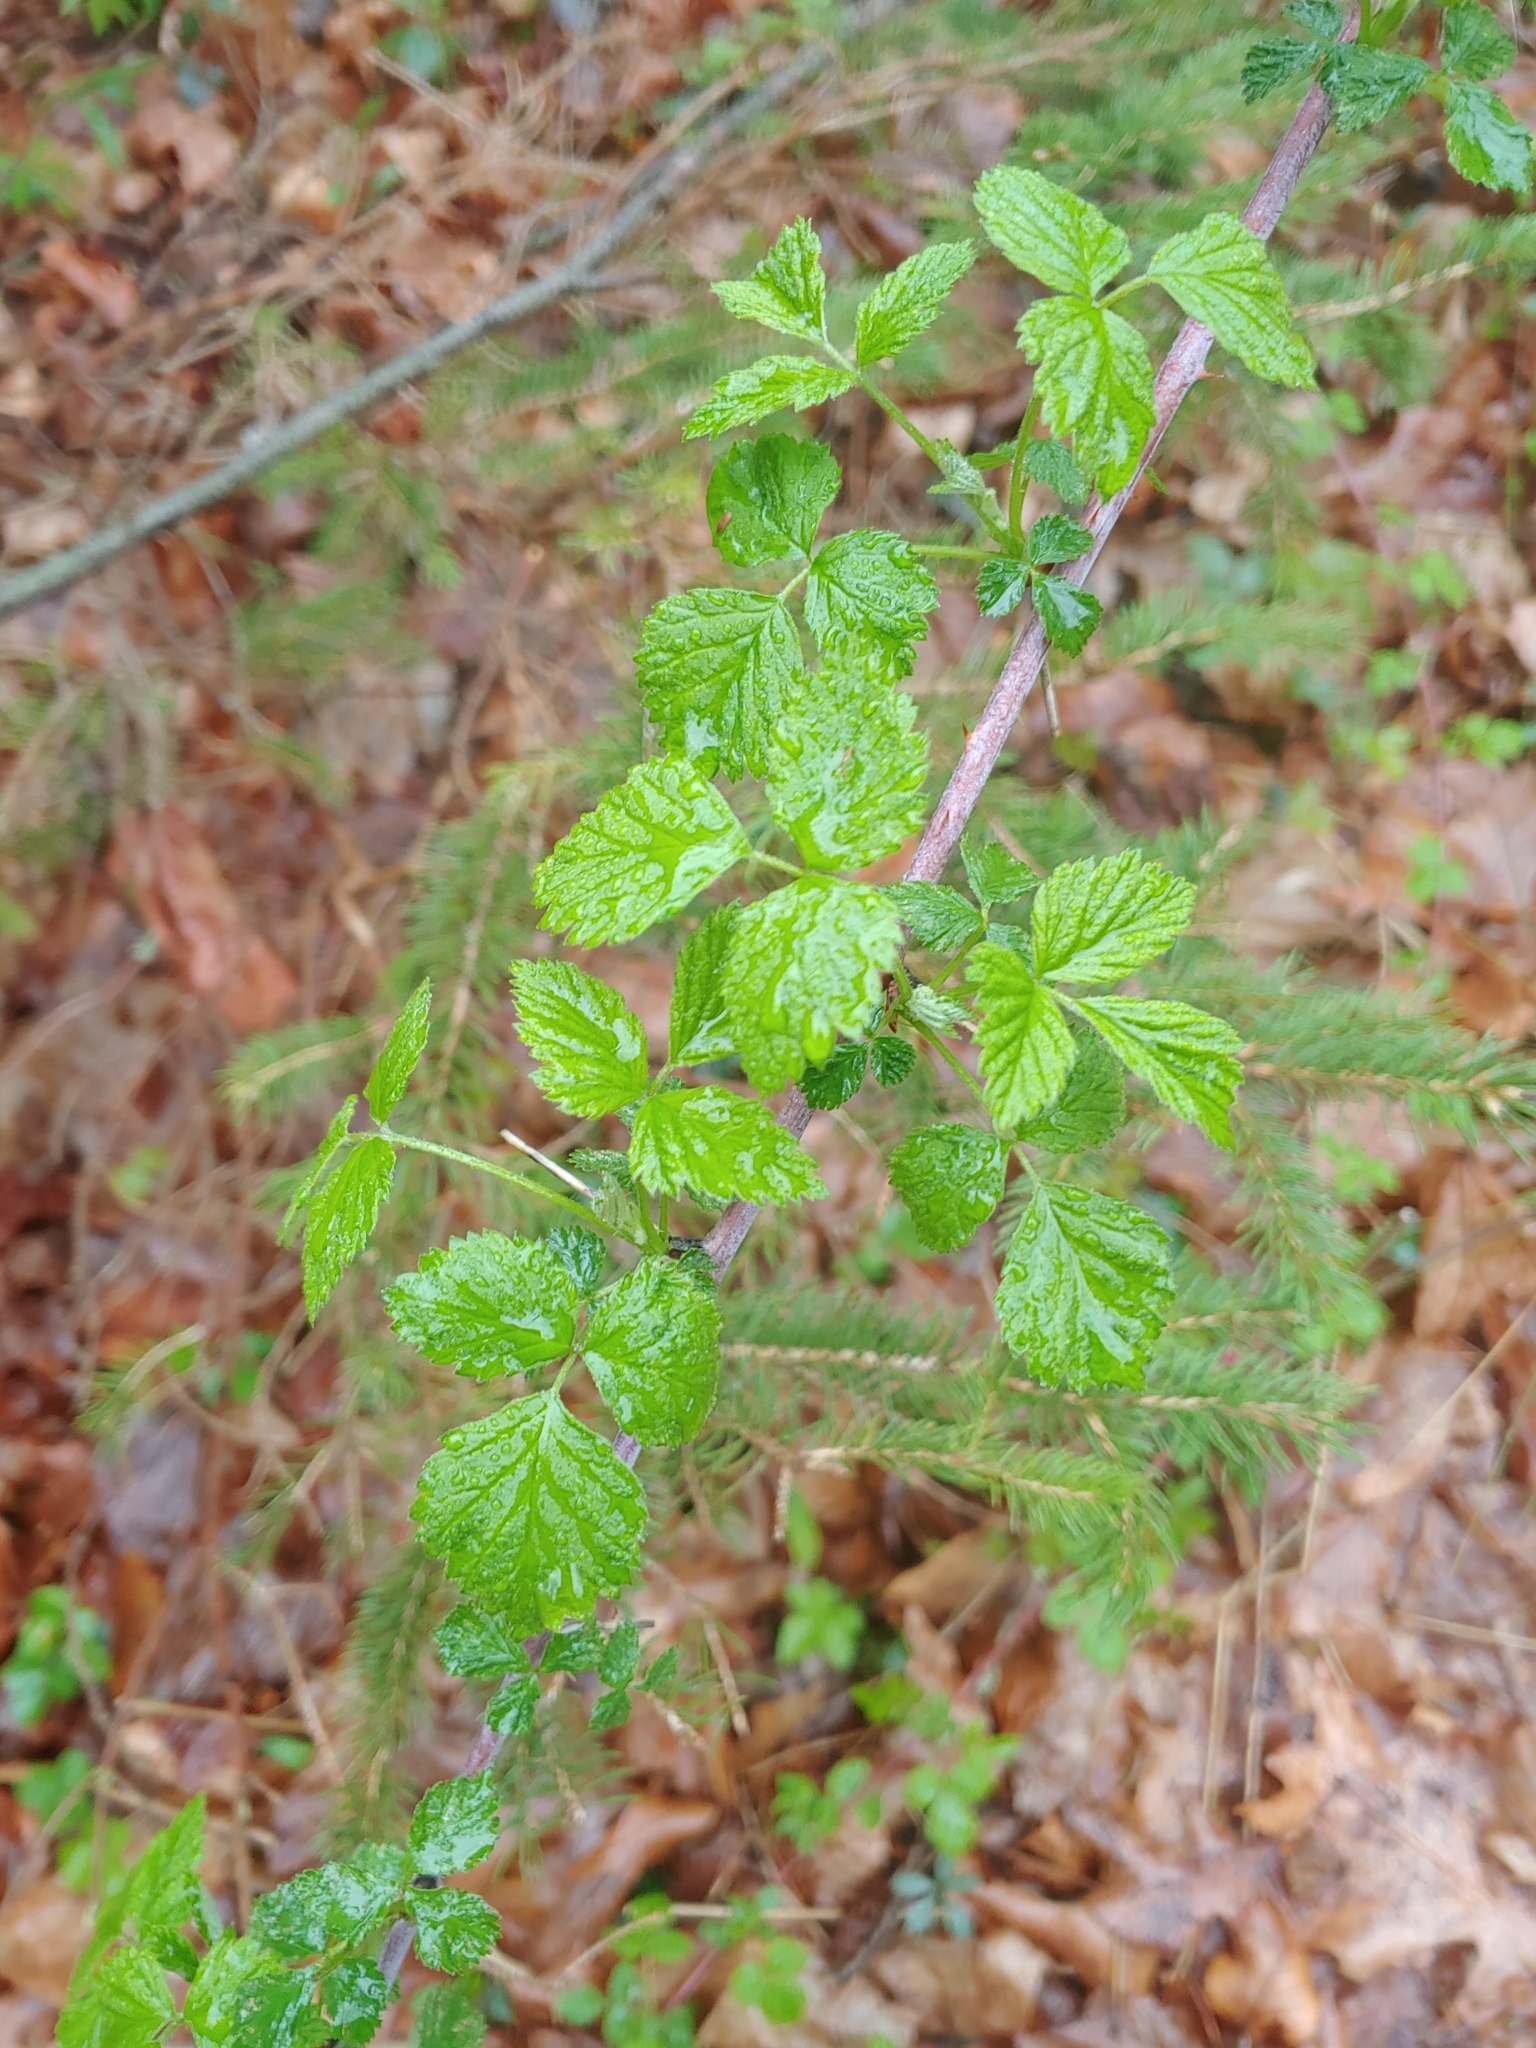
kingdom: Plantae
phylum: Tracheophyta
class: Magnoliopsida
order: Rosales
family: Rosaceae
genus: Rubus
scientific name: Rubus occidentalis
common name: Black raspberry
